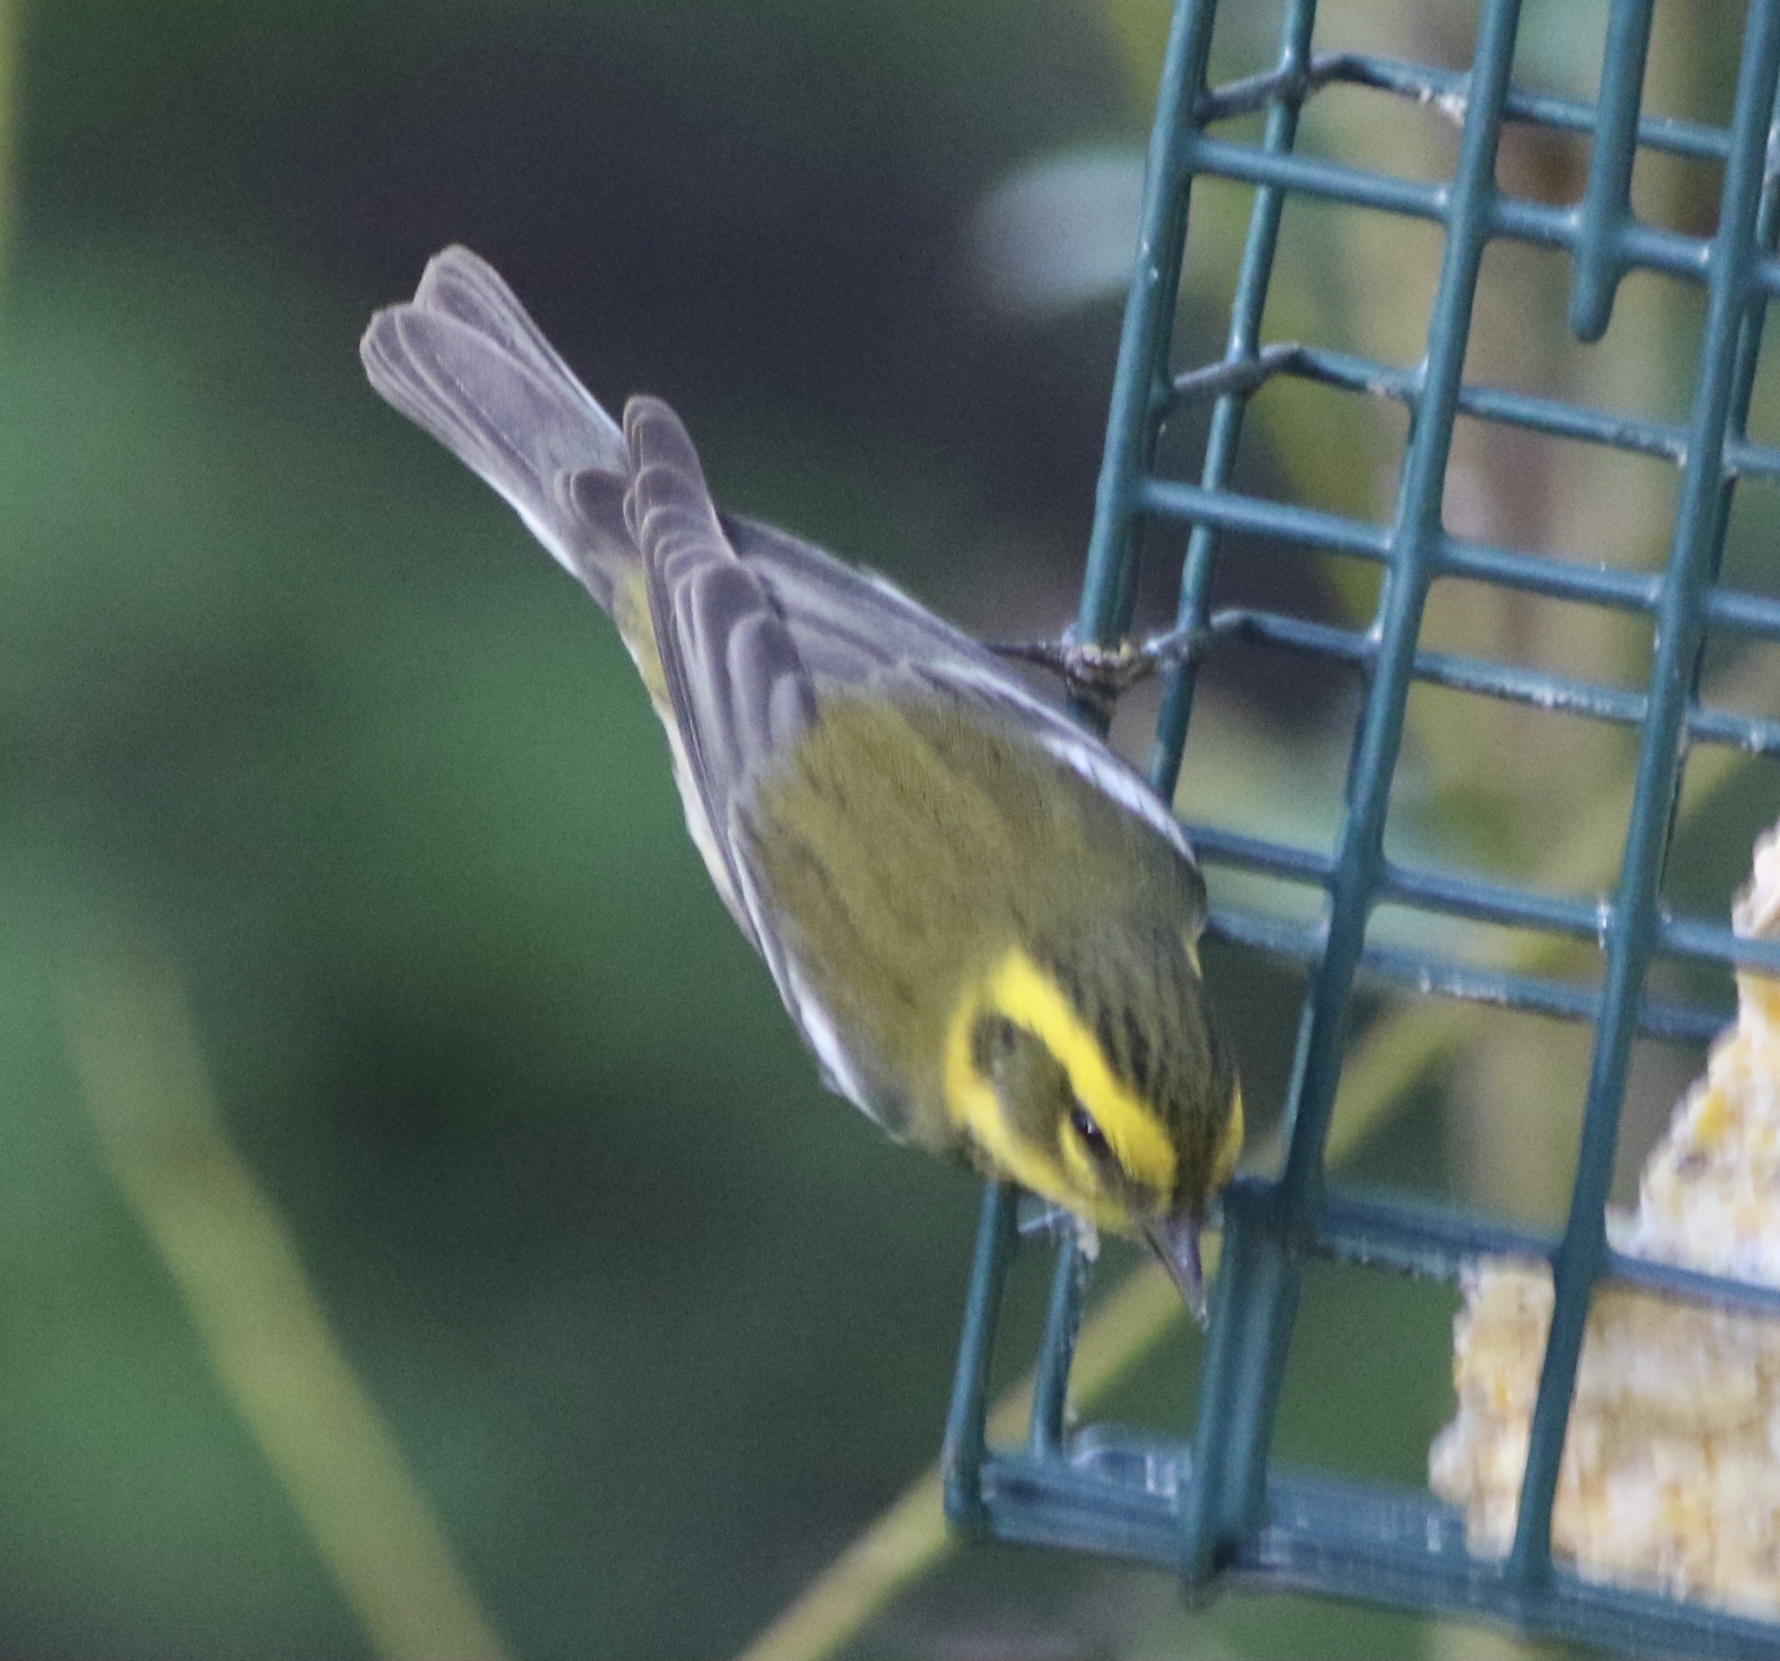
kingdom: Animalia
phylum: Chordata
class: Aves
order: Passeriformes
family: Parulidae
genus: Setophaga
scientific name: Setophaga townsendi
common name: Townsend's warbler
